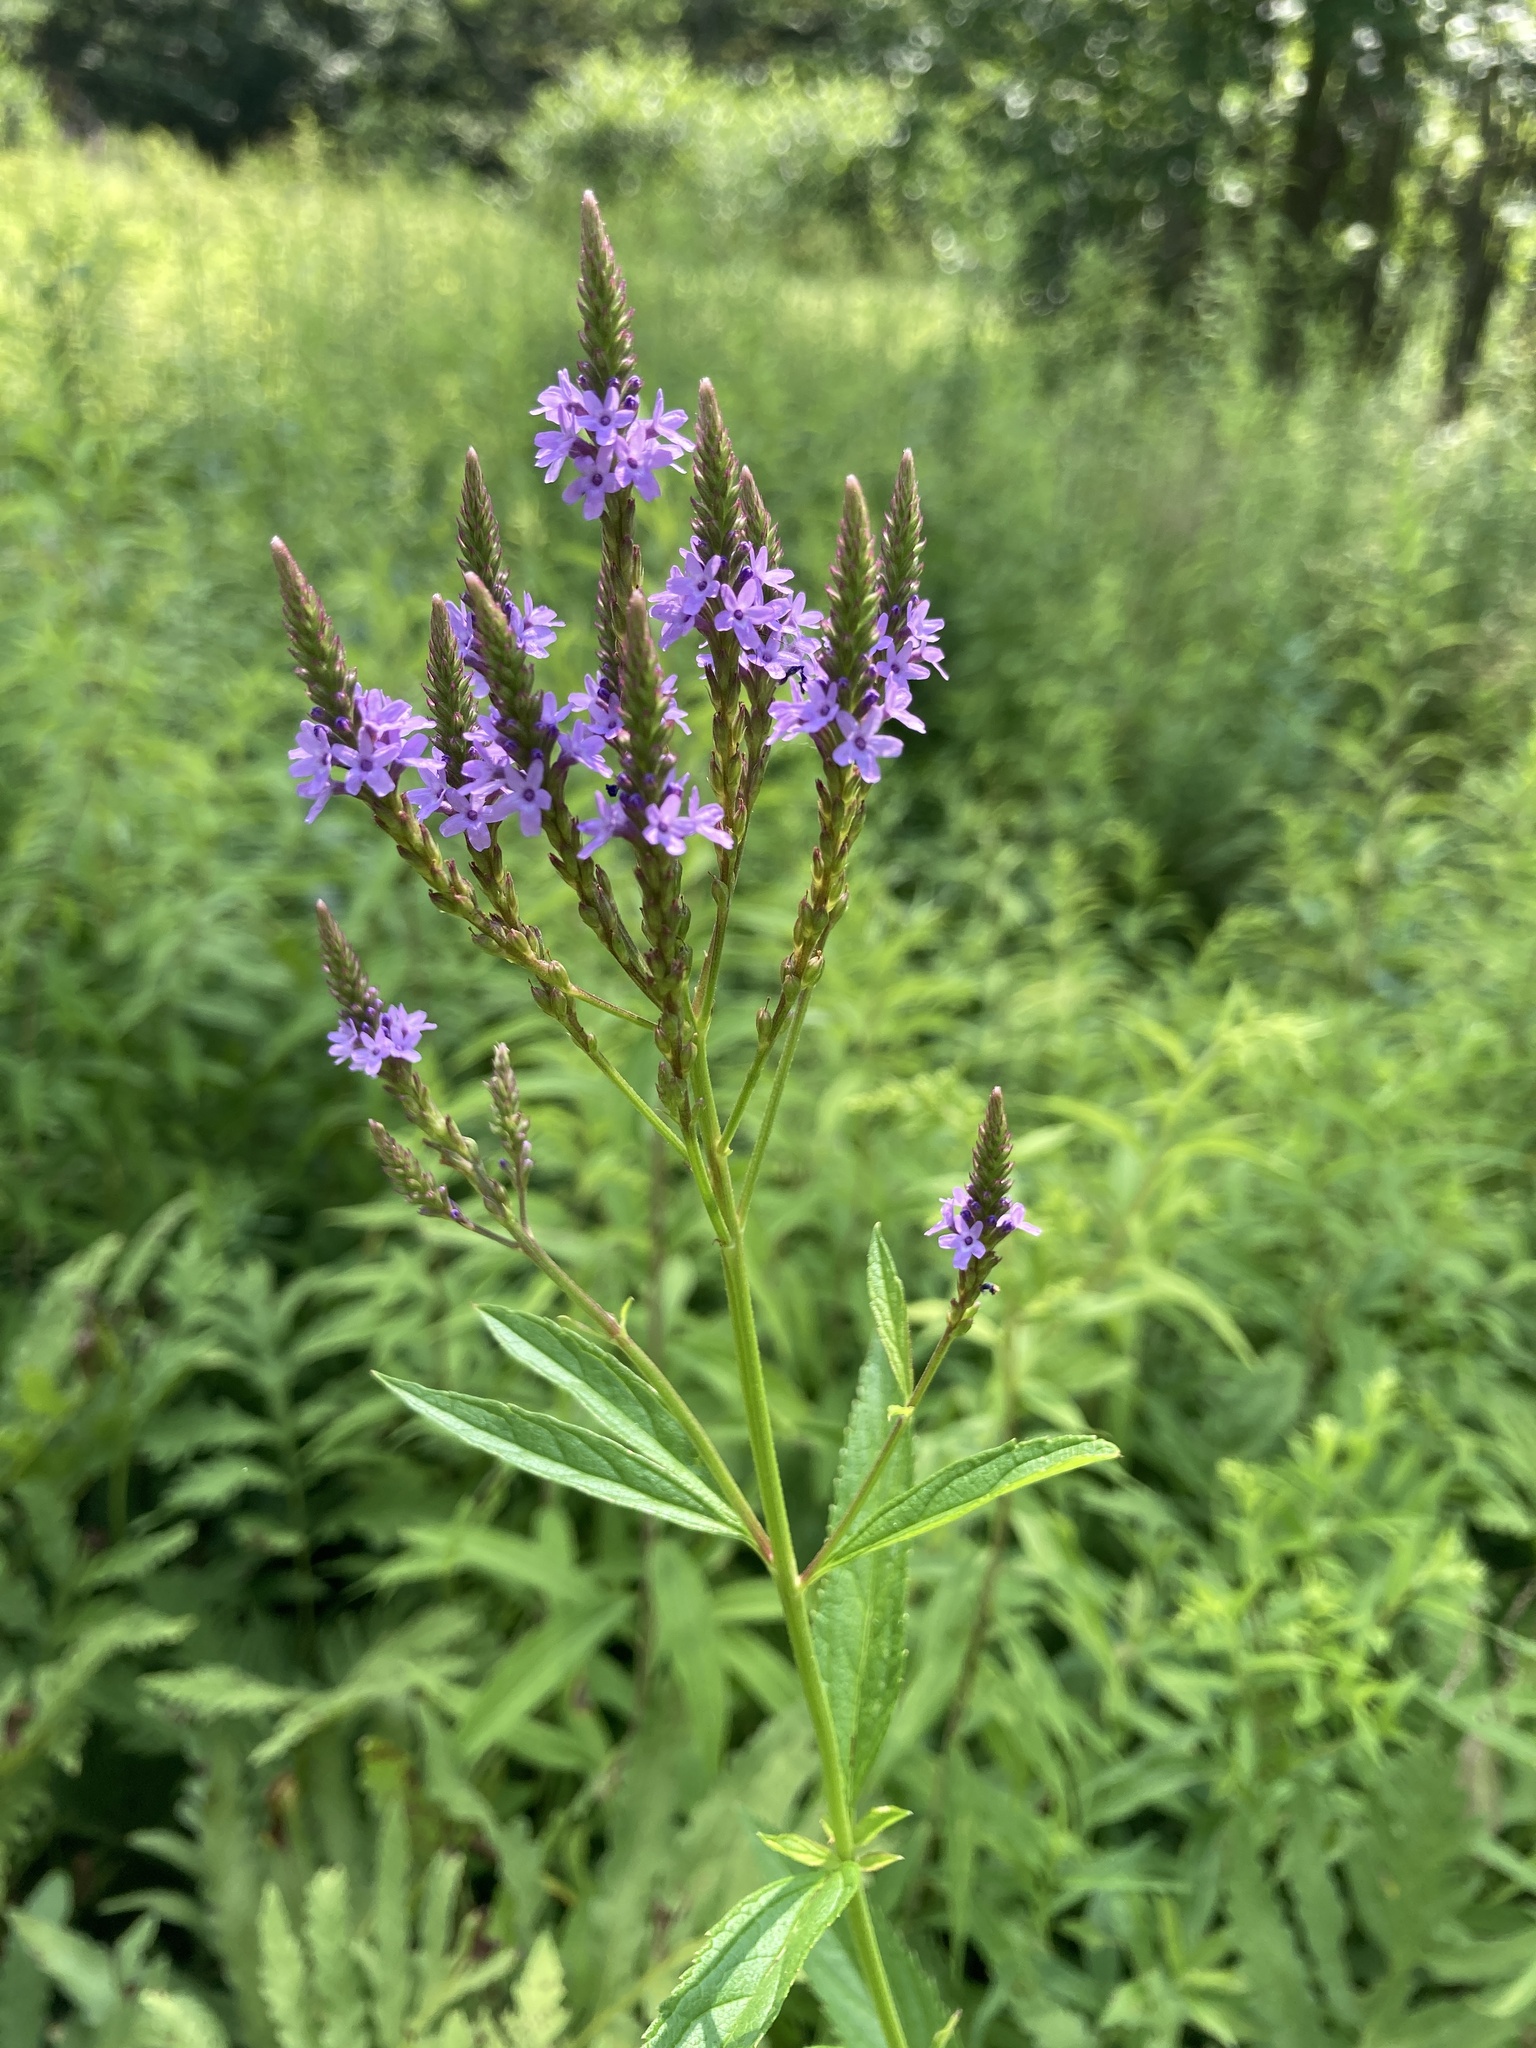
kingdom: Plantae
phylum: Tracheophyta
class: Magnoliopsida
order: Lamiales
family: Verbenaceae
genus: Verbena
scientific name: Verbena hastata
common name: American blue vervain
